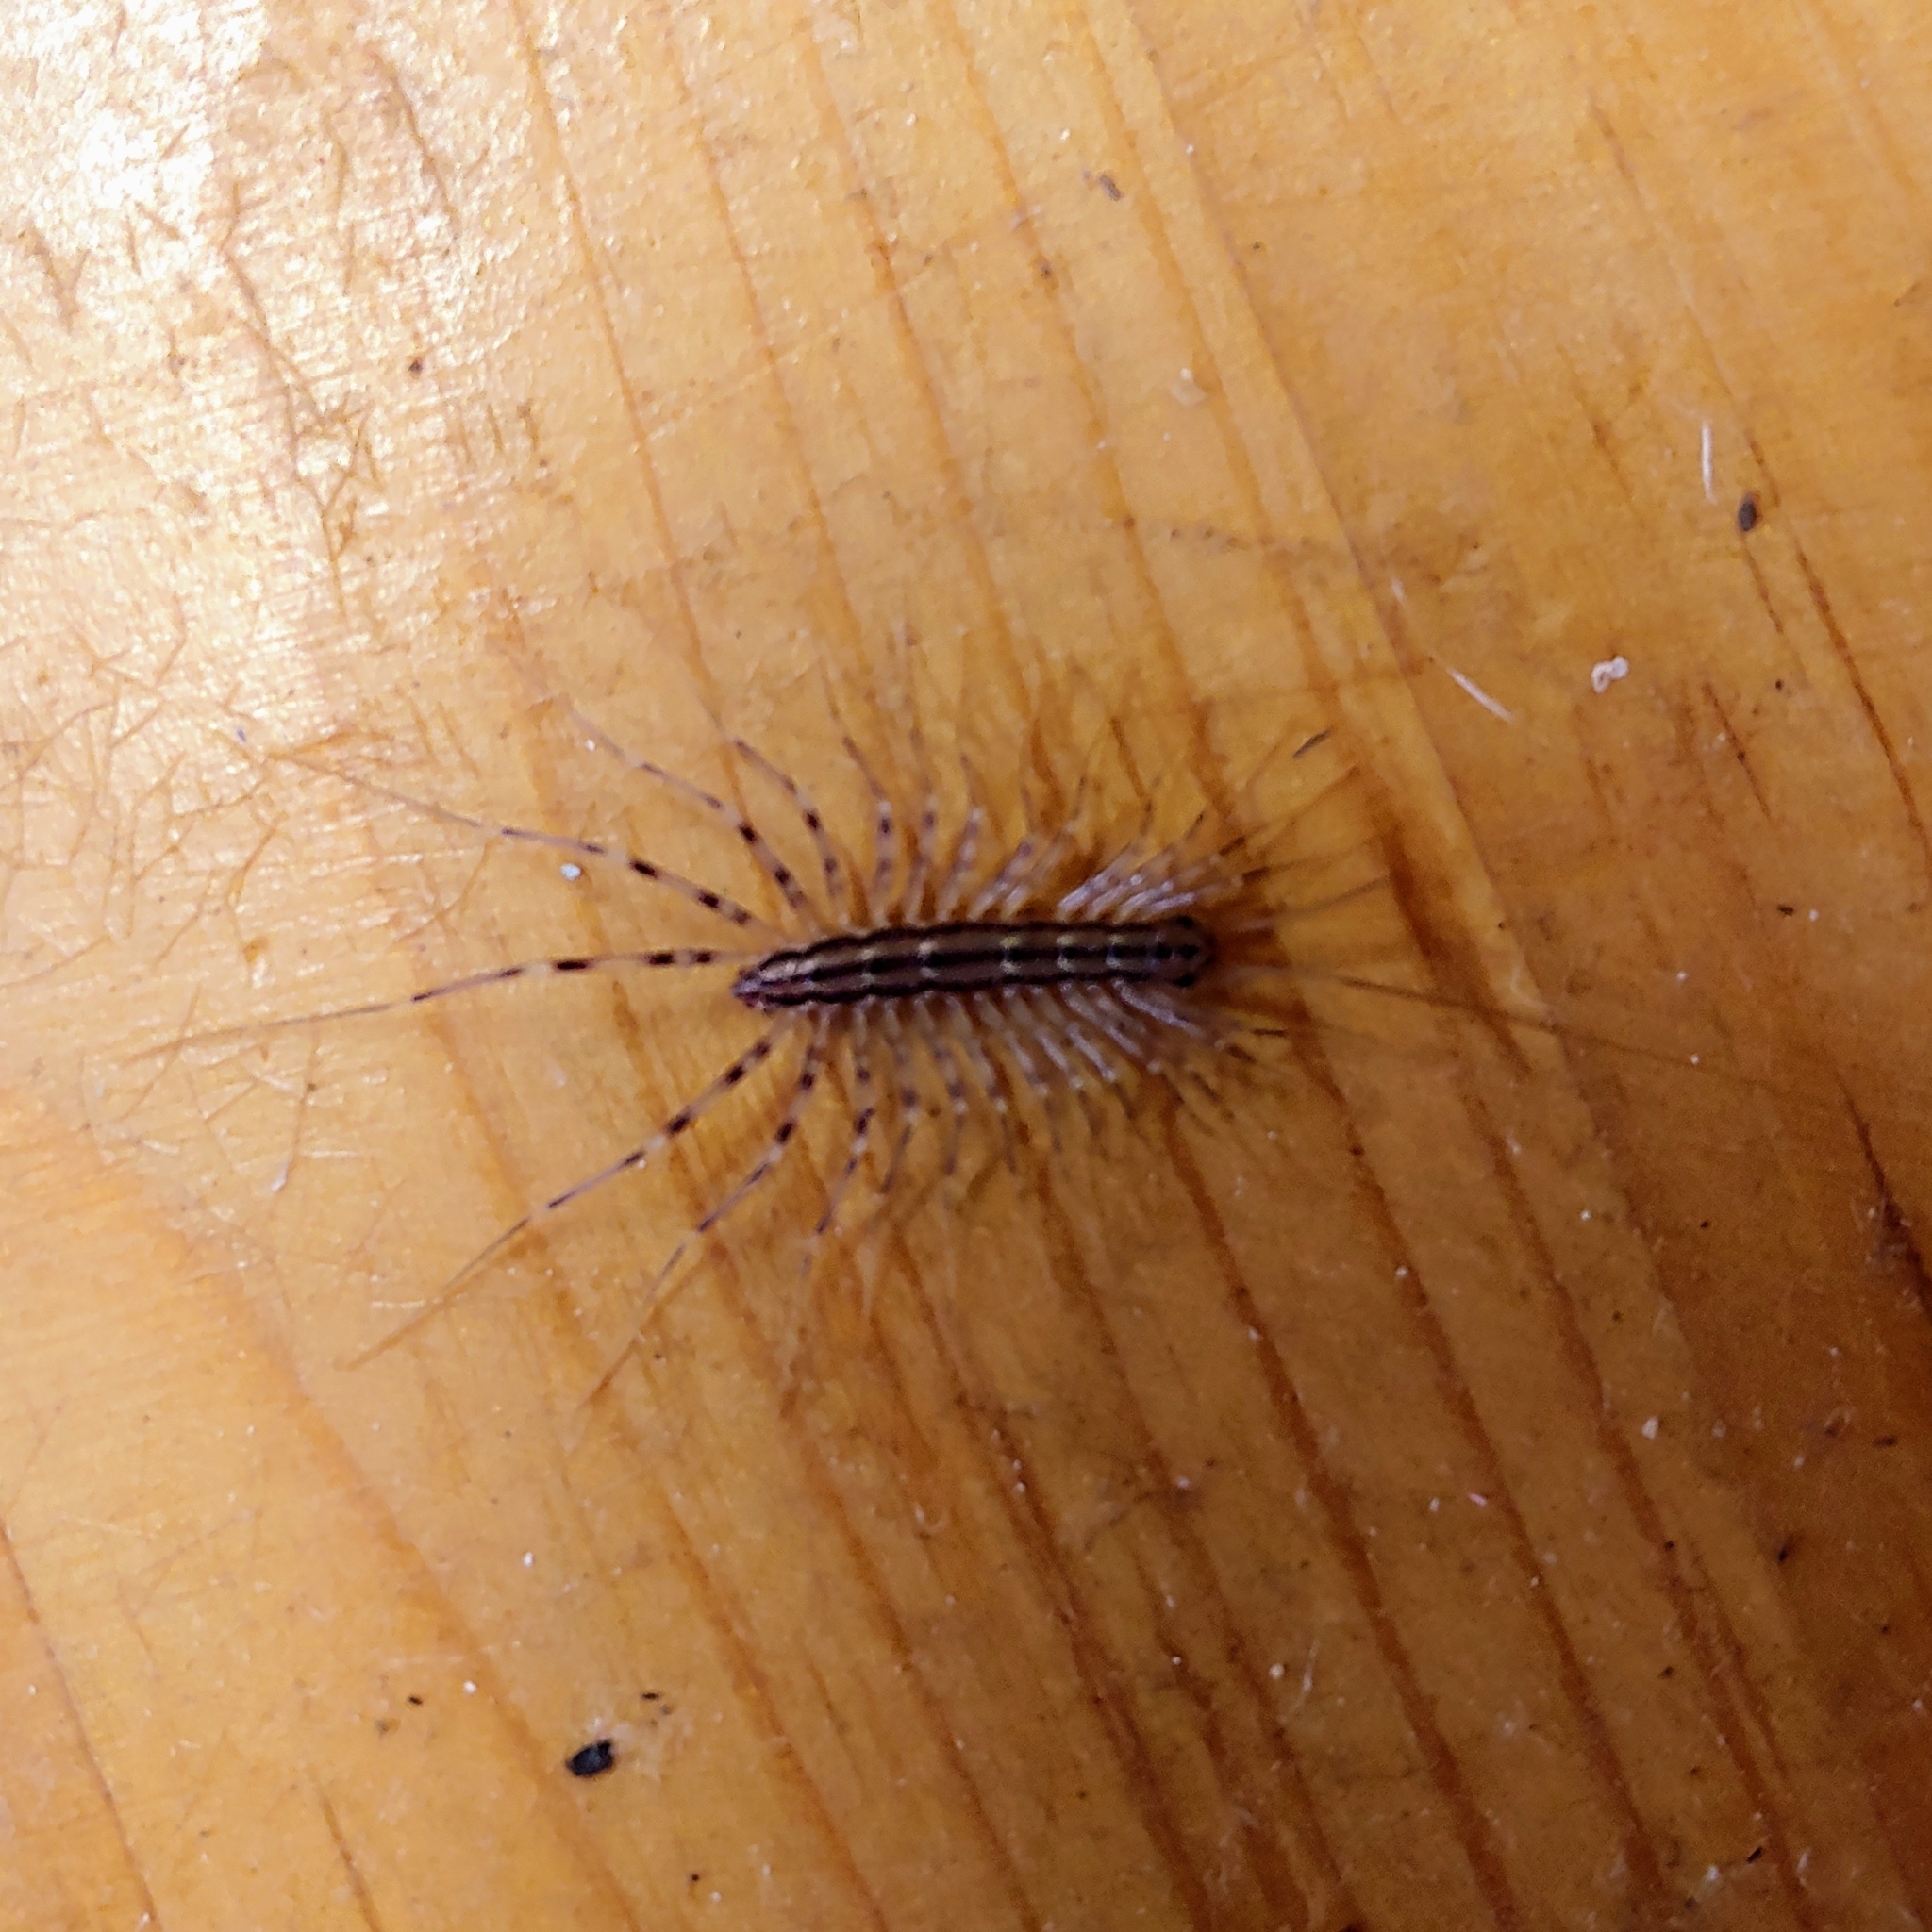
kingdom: Animalia
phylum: Arthropoda
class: Chilopoda
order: Scutigeromorpha
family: Scutigeridae
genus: Scutigera
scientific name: Scutigera coleoptrata
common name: House centipede
